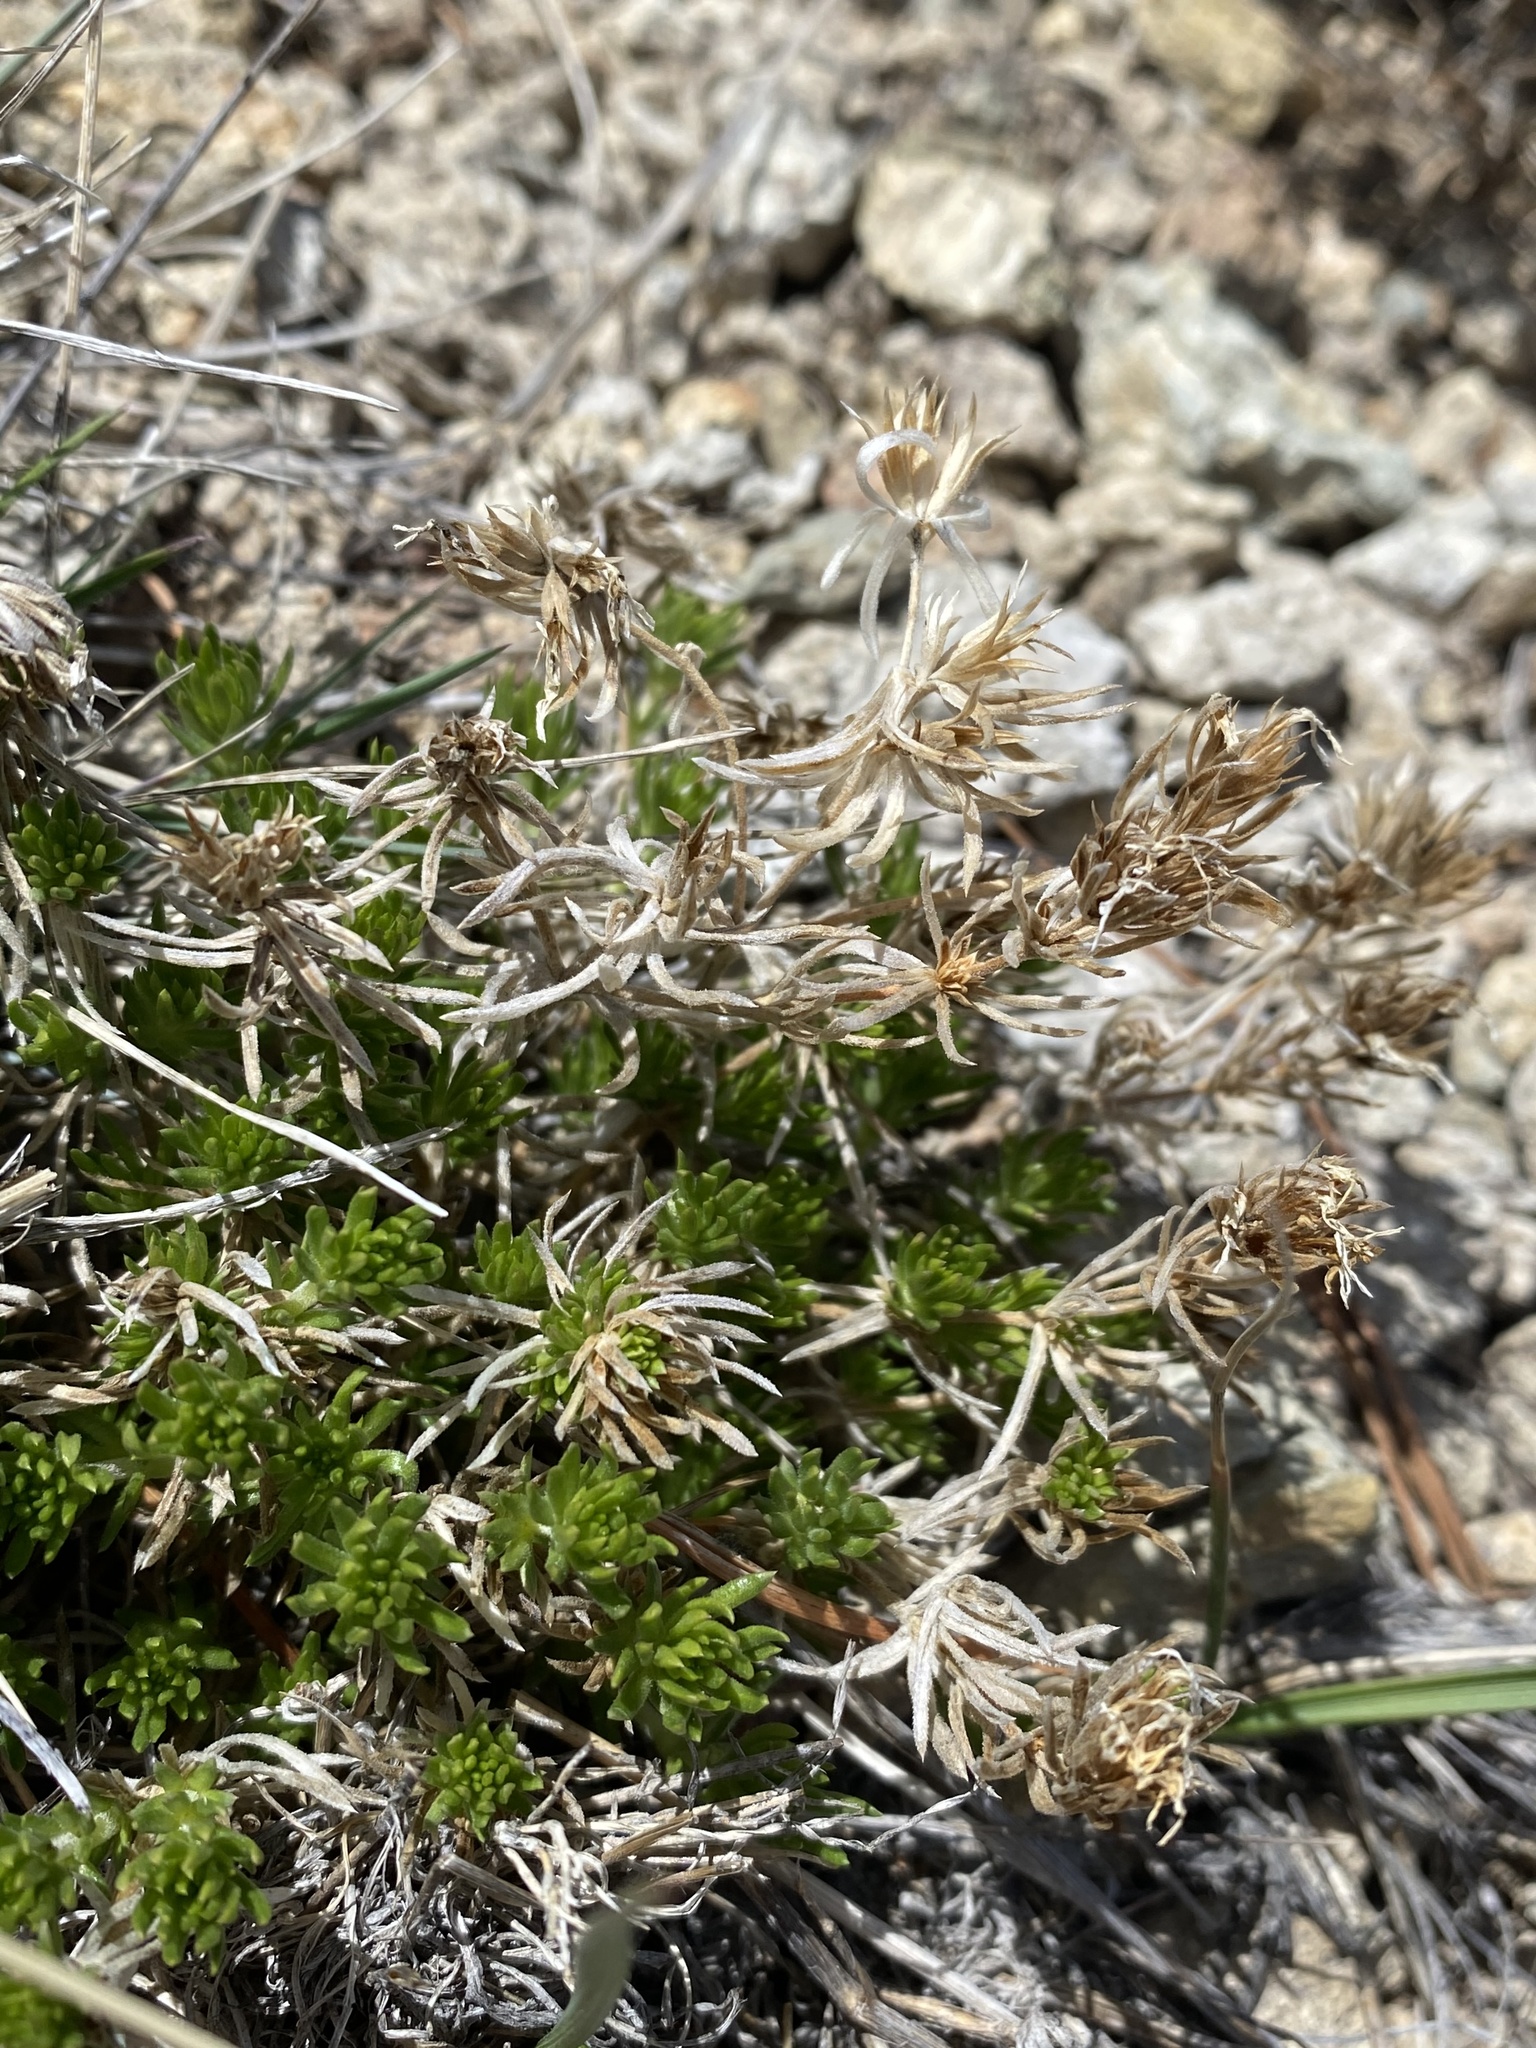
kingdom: Plantae
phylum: Tracheophyta
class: Magnoliopsida
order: Ericales
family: Polemoniaceae
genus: Leptosiphon
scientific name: Leptosiphon nuttallii
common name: Nuttall's linanthus
